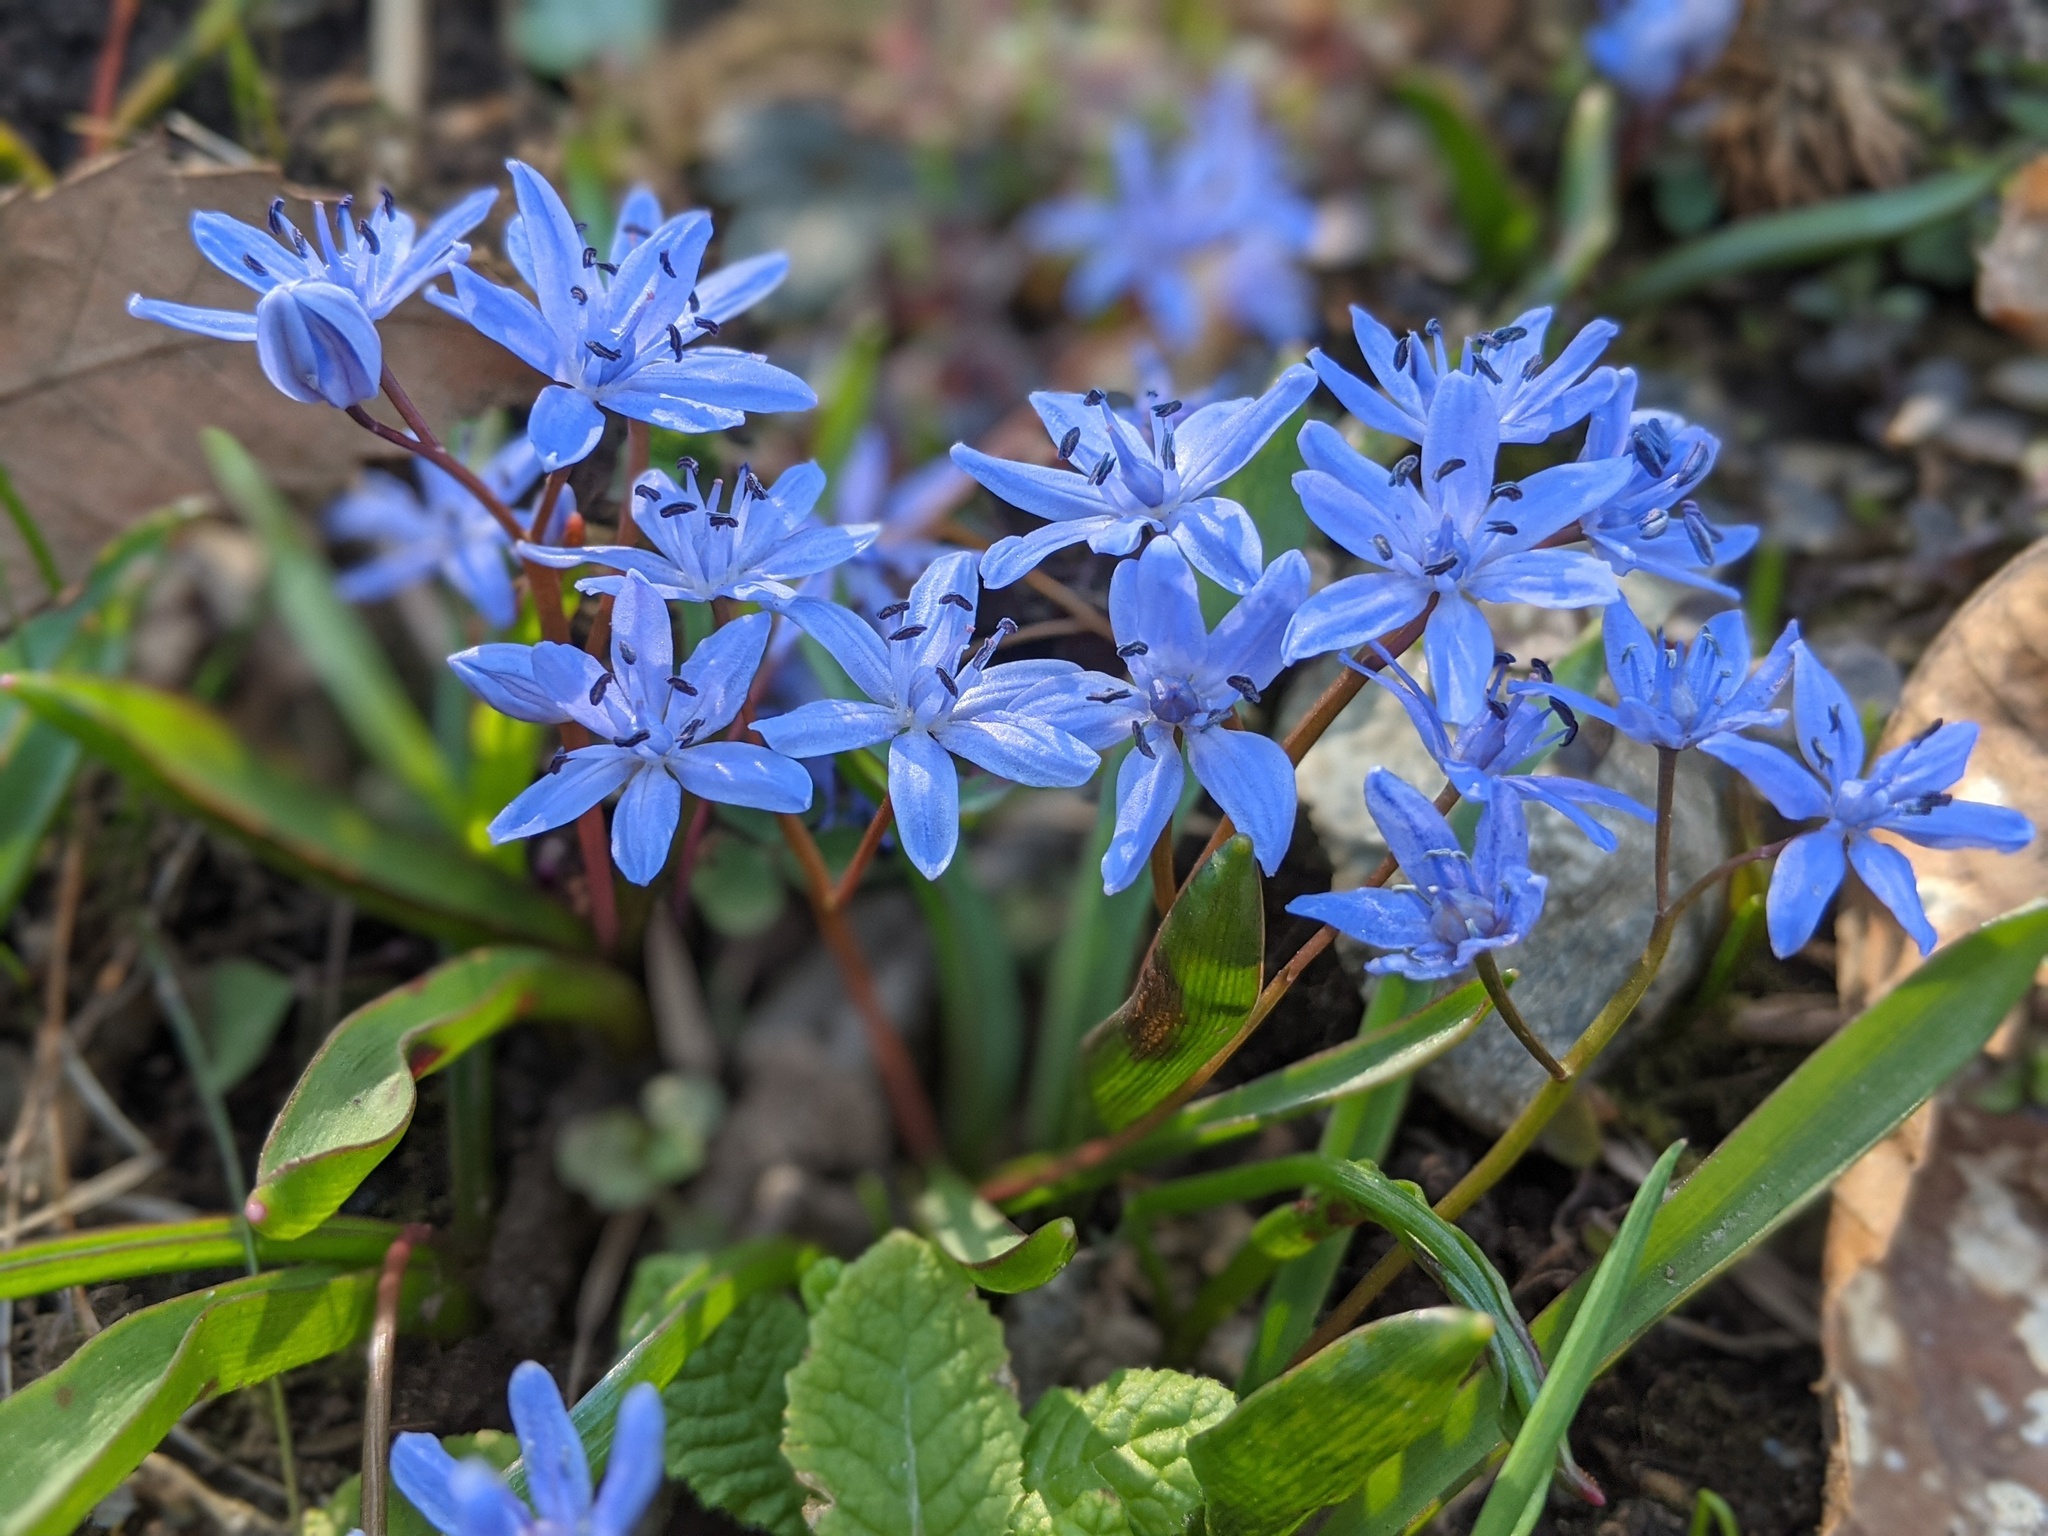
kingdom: Plantae
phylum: Tracheophyta
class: Liliopsida
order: Asparagales
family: Asparagaceae
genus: Scilla
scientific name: Scilla bifolia
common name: Alpine squill
